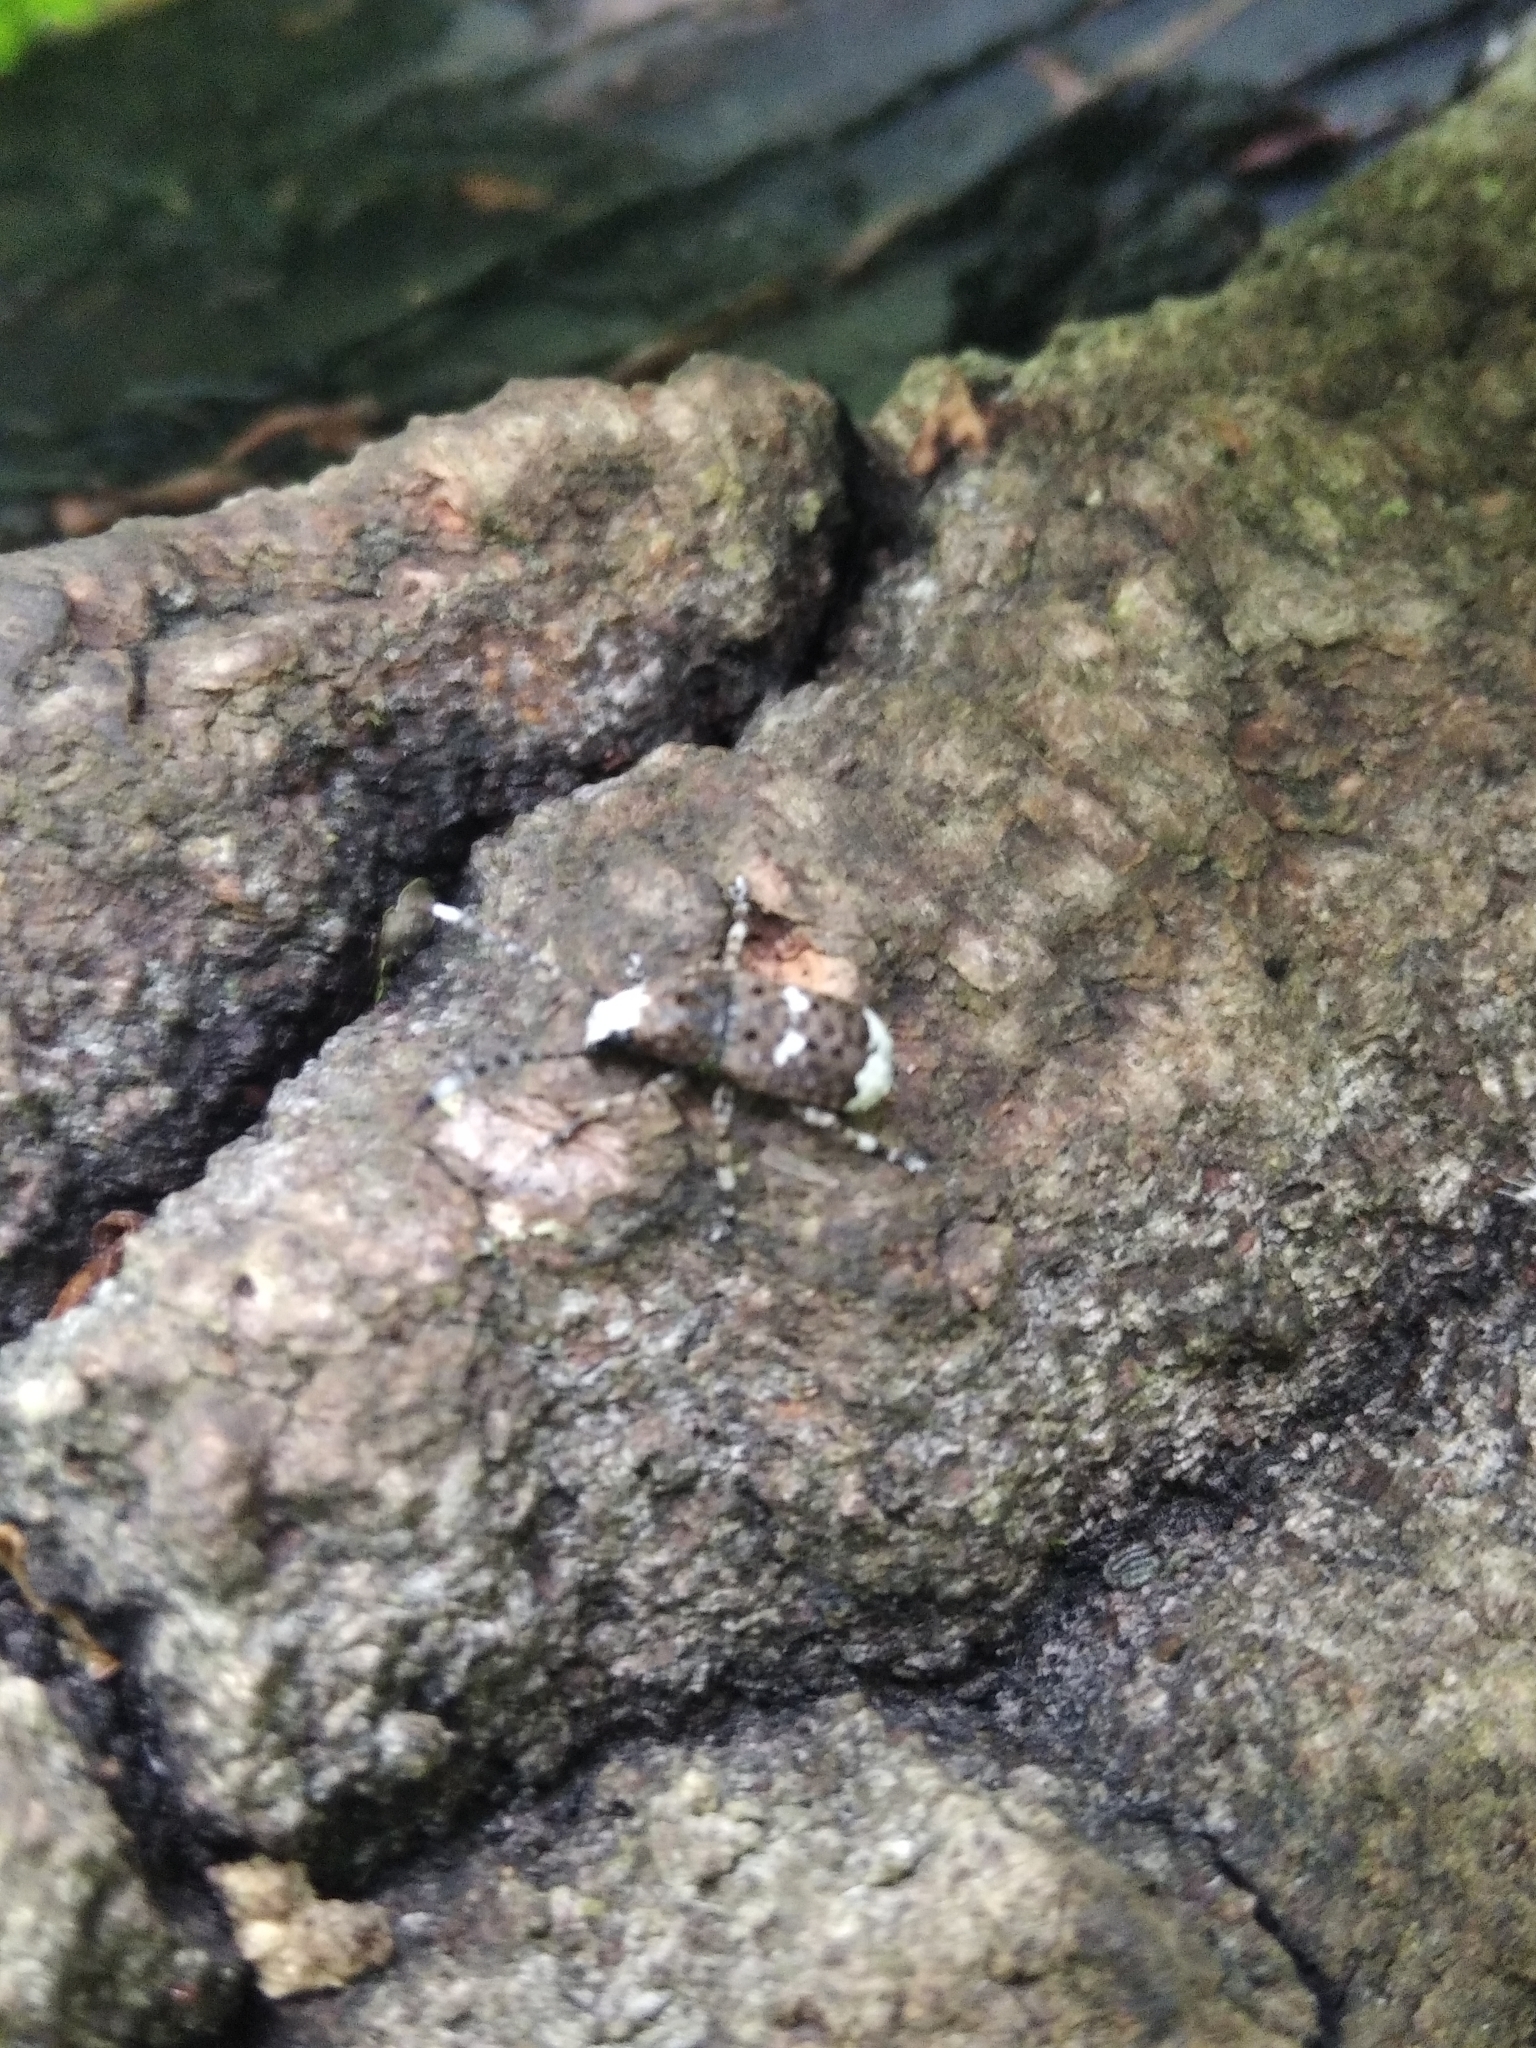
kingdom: Animalia
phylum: Arthropoda
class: Insecta
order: Coleoptera
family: Anthribidae
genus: Platystomos
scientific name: Platystomos albinus
